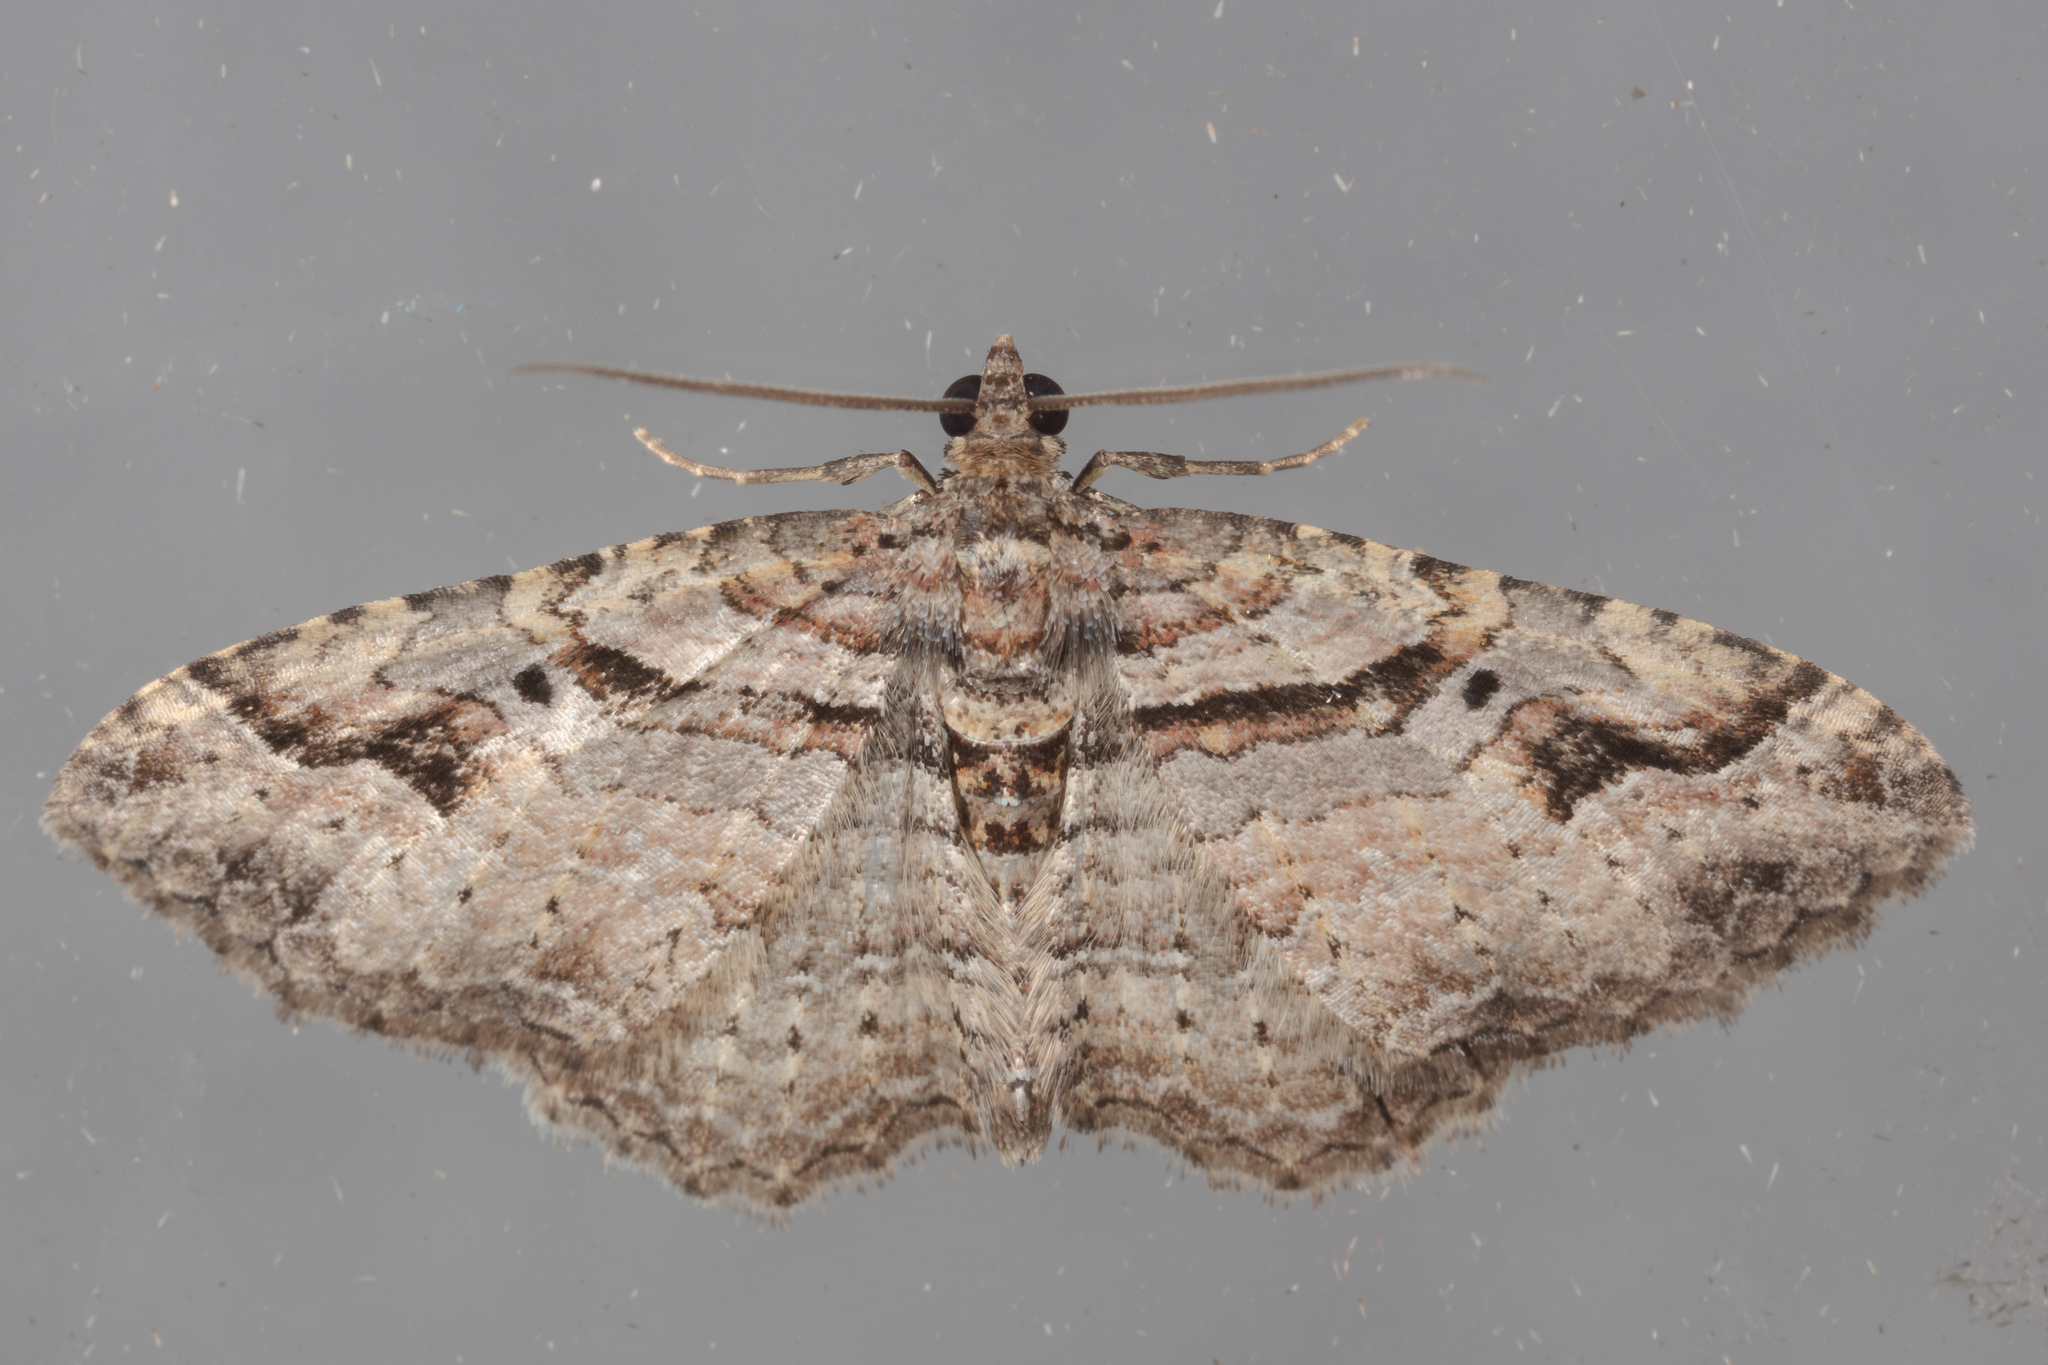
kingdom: Animalia
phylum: Arthropoda
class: Insecta
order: Lepidoptera
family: Geometridae
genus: Costaconvexa
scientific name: Costaconvexa centrostrigaria
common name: Bent-line carpet
